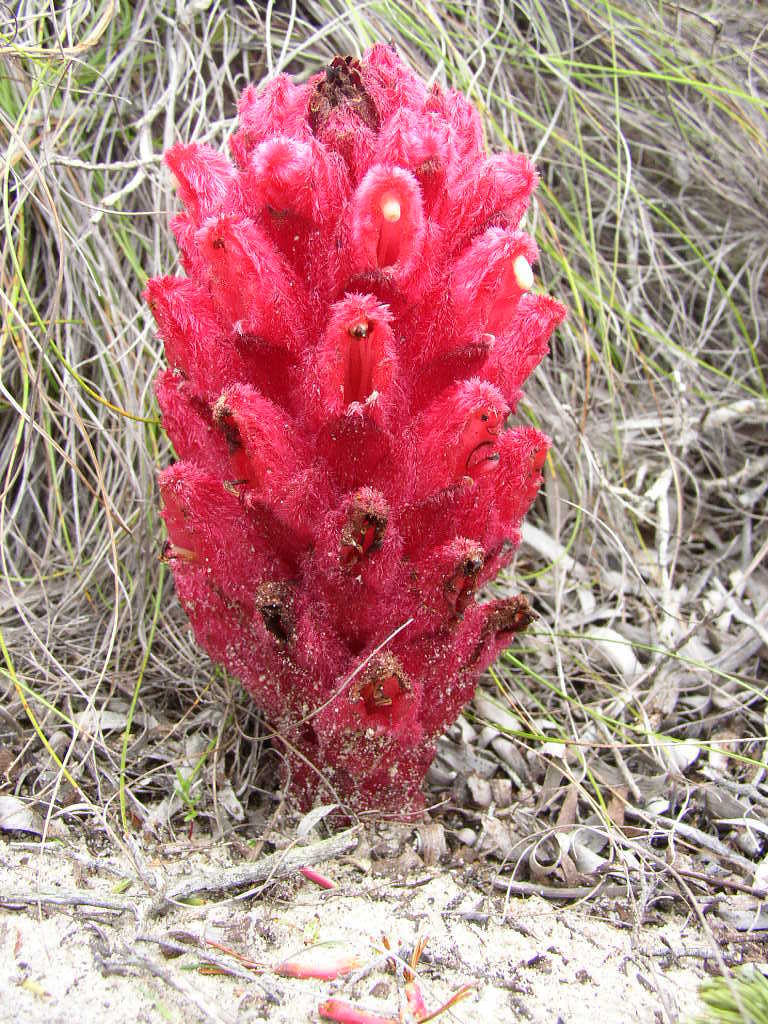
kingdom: Plantae
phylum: Tracheophyta
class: Magnoliopsida
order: Lamiales
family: Orobanchaceae
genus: Hyobanche
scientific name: Hyobanche sanguinea
